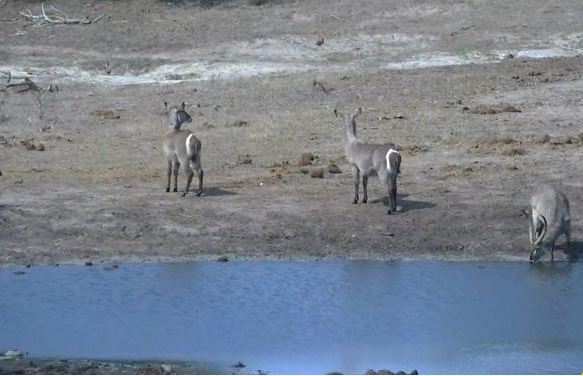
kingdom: Animalia
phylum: Chordata
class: Mammalia
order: Artiodactyla
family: Bovidae
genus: Kobus
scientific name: Kobus ellipsiprymnus
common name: Waterbuck
